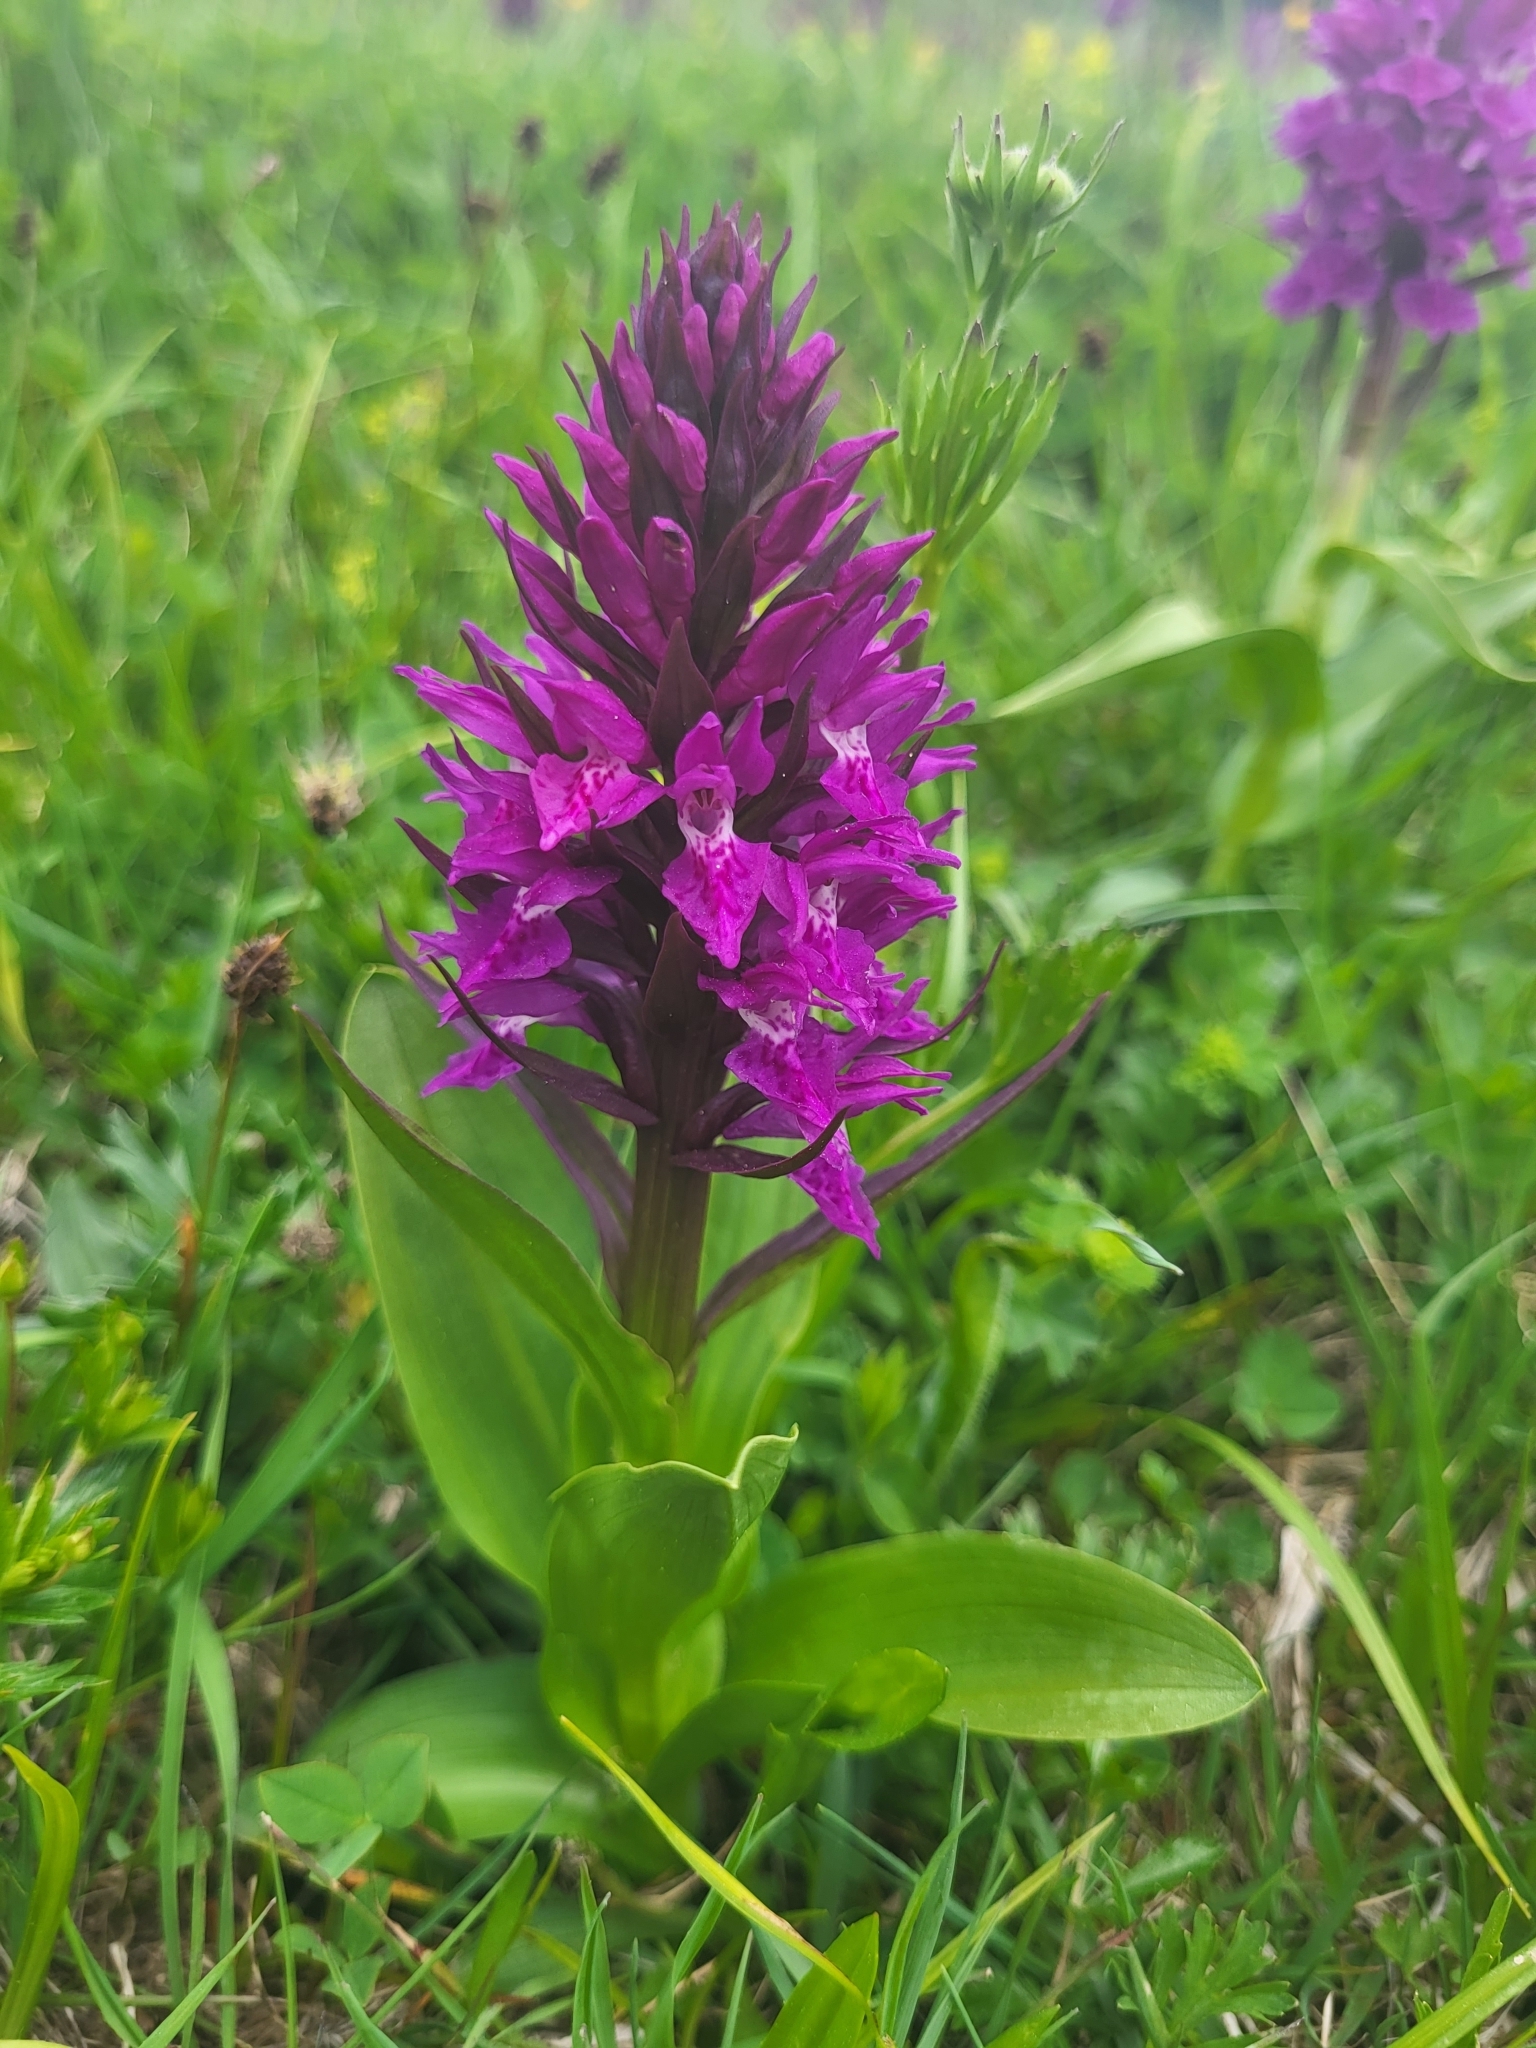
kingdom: Plantae
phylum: Tracheophyta
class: Liliopsida
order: Asparagales
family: Orchidaceae
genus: Dactylorhiza
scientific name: Dactylorhiza euxina
